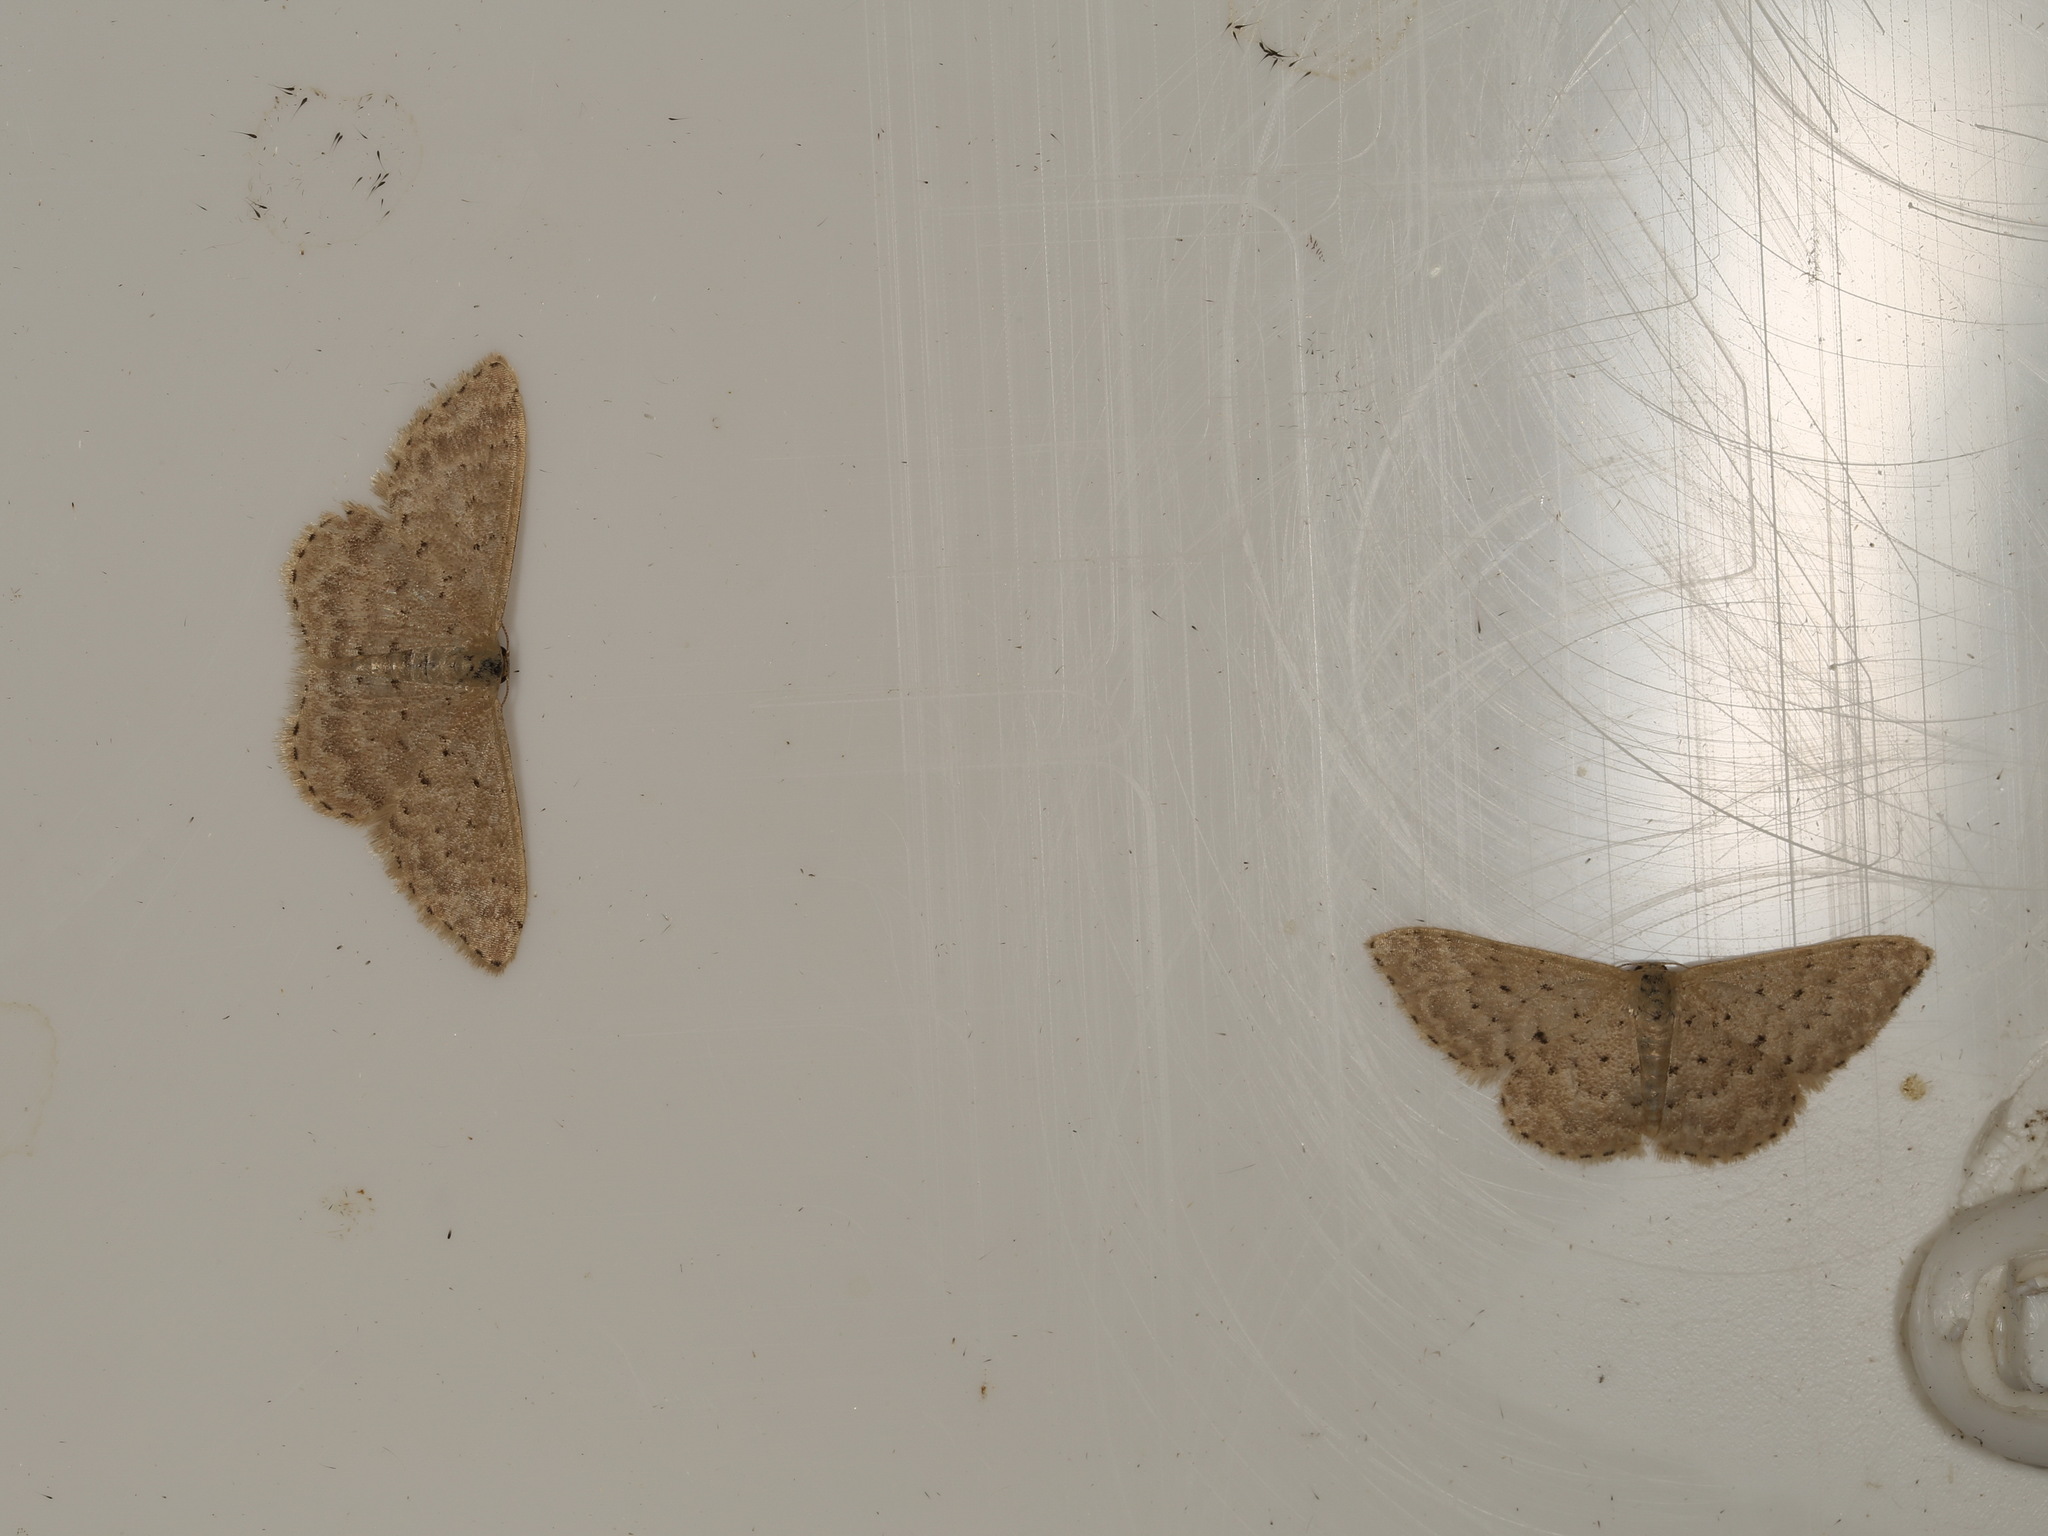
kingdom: Animalia
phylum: Arthropoda
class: Insecta
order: Lepidoptera
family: Geometridae
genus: Idaea
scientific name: Idaea philocosma
